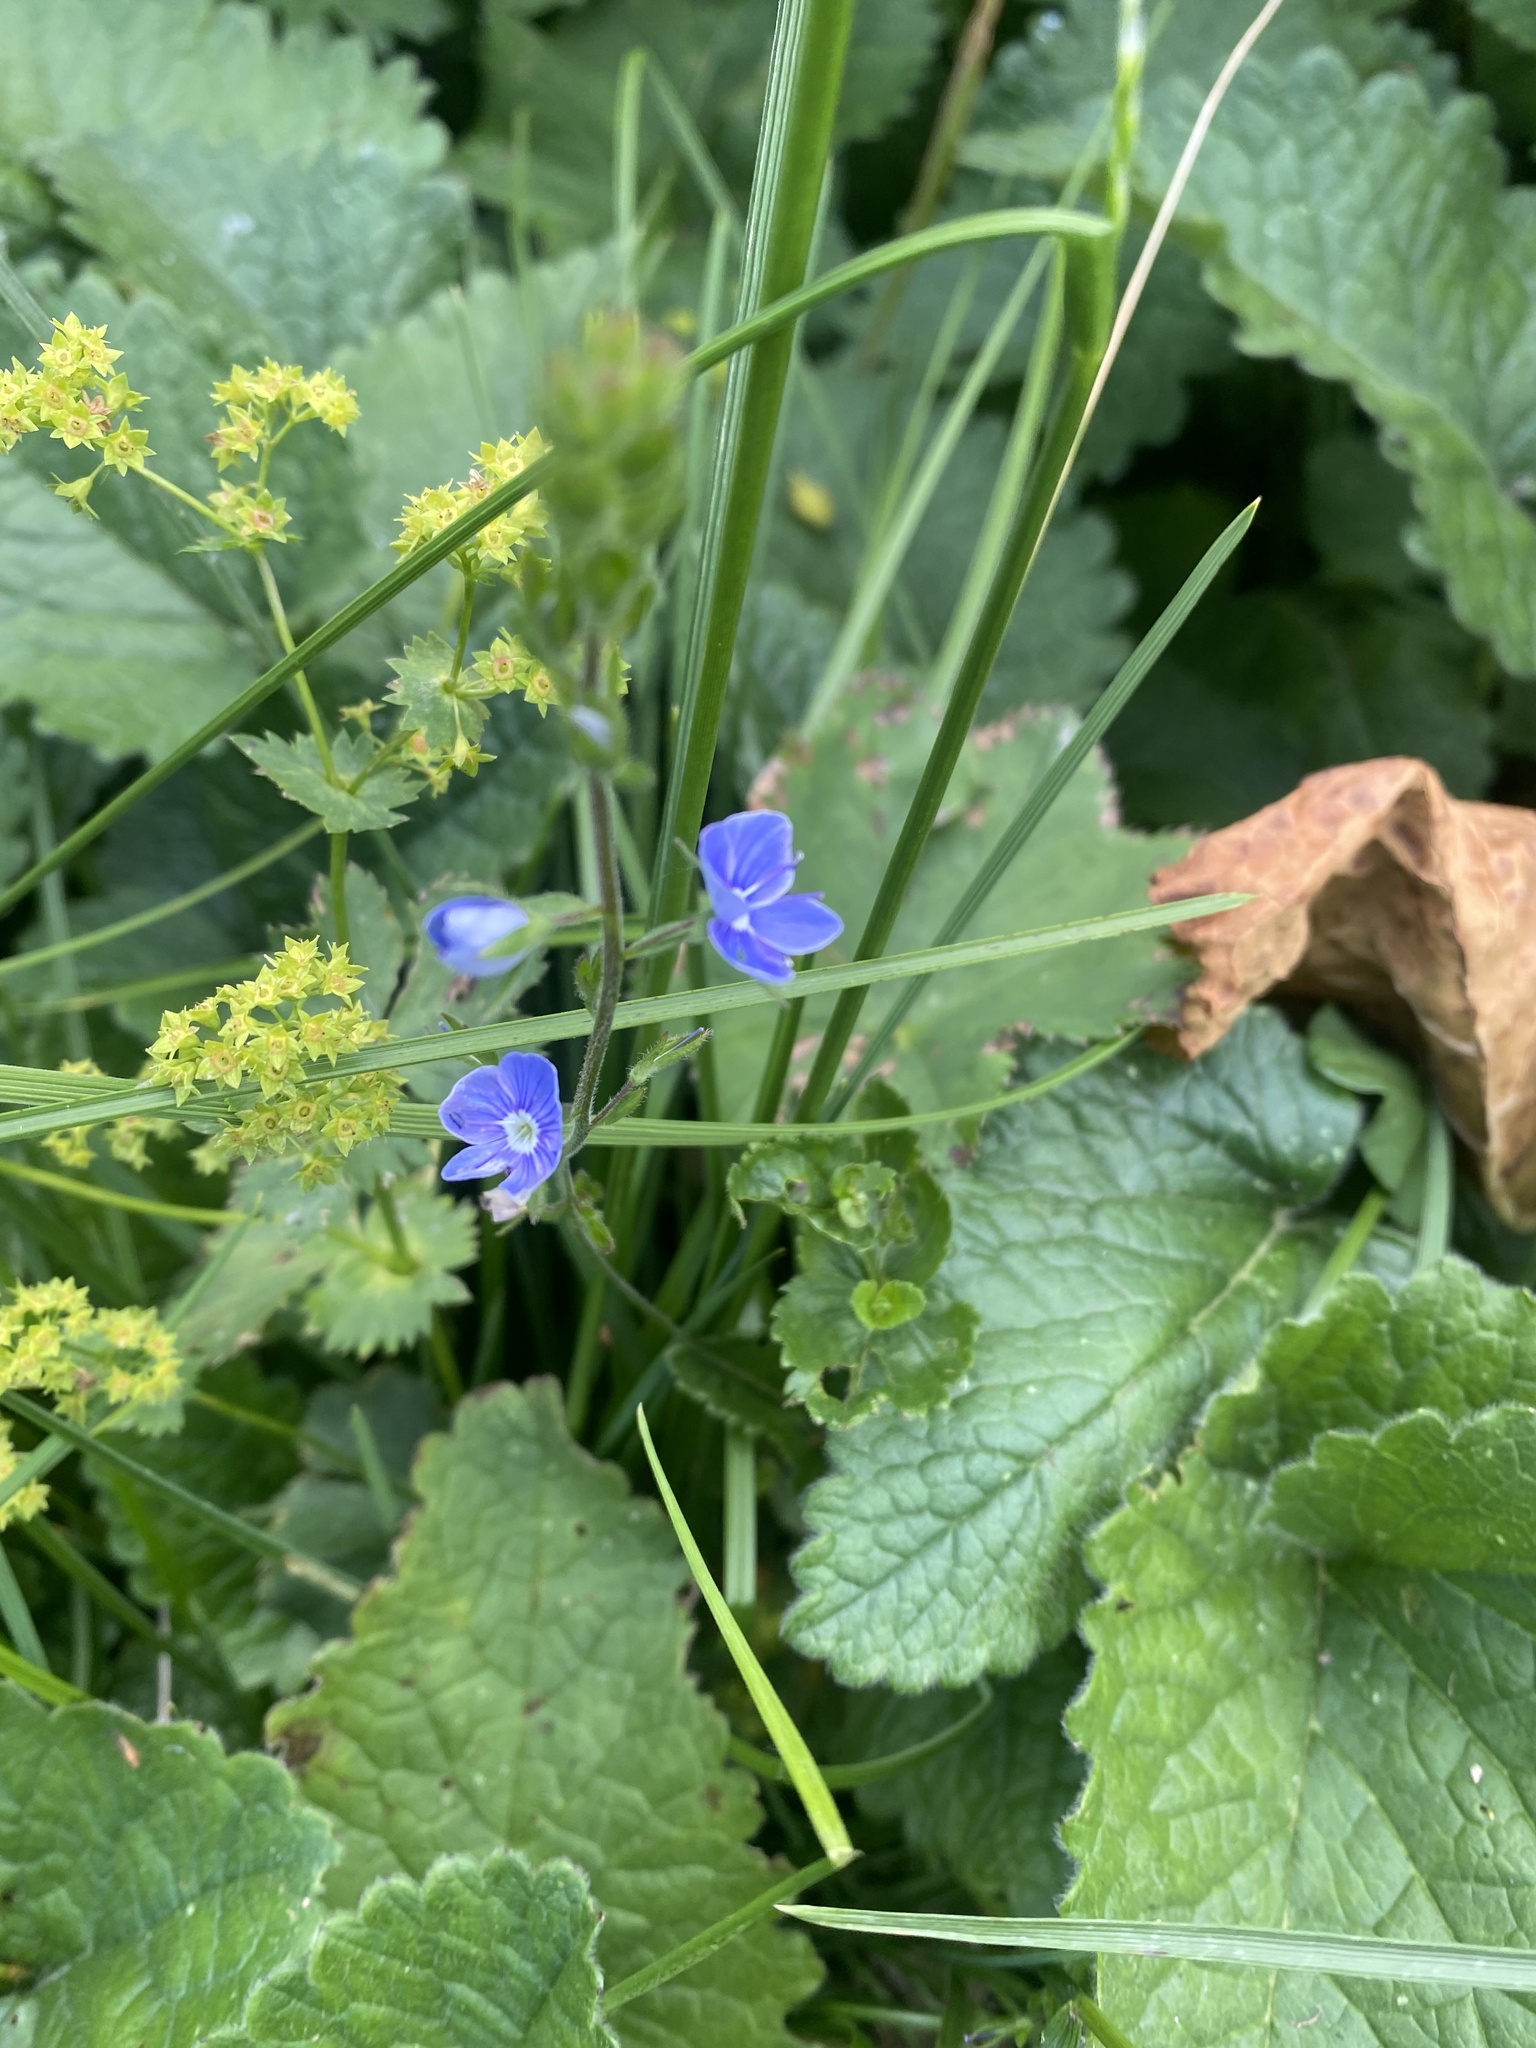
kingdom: Plantae
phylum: Tracheophyta
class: Magnoliopsida
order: Lamiales
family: Plantaginaceae
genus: Veronica
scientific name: Veronica chamaedrys
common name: Germander speedwell
